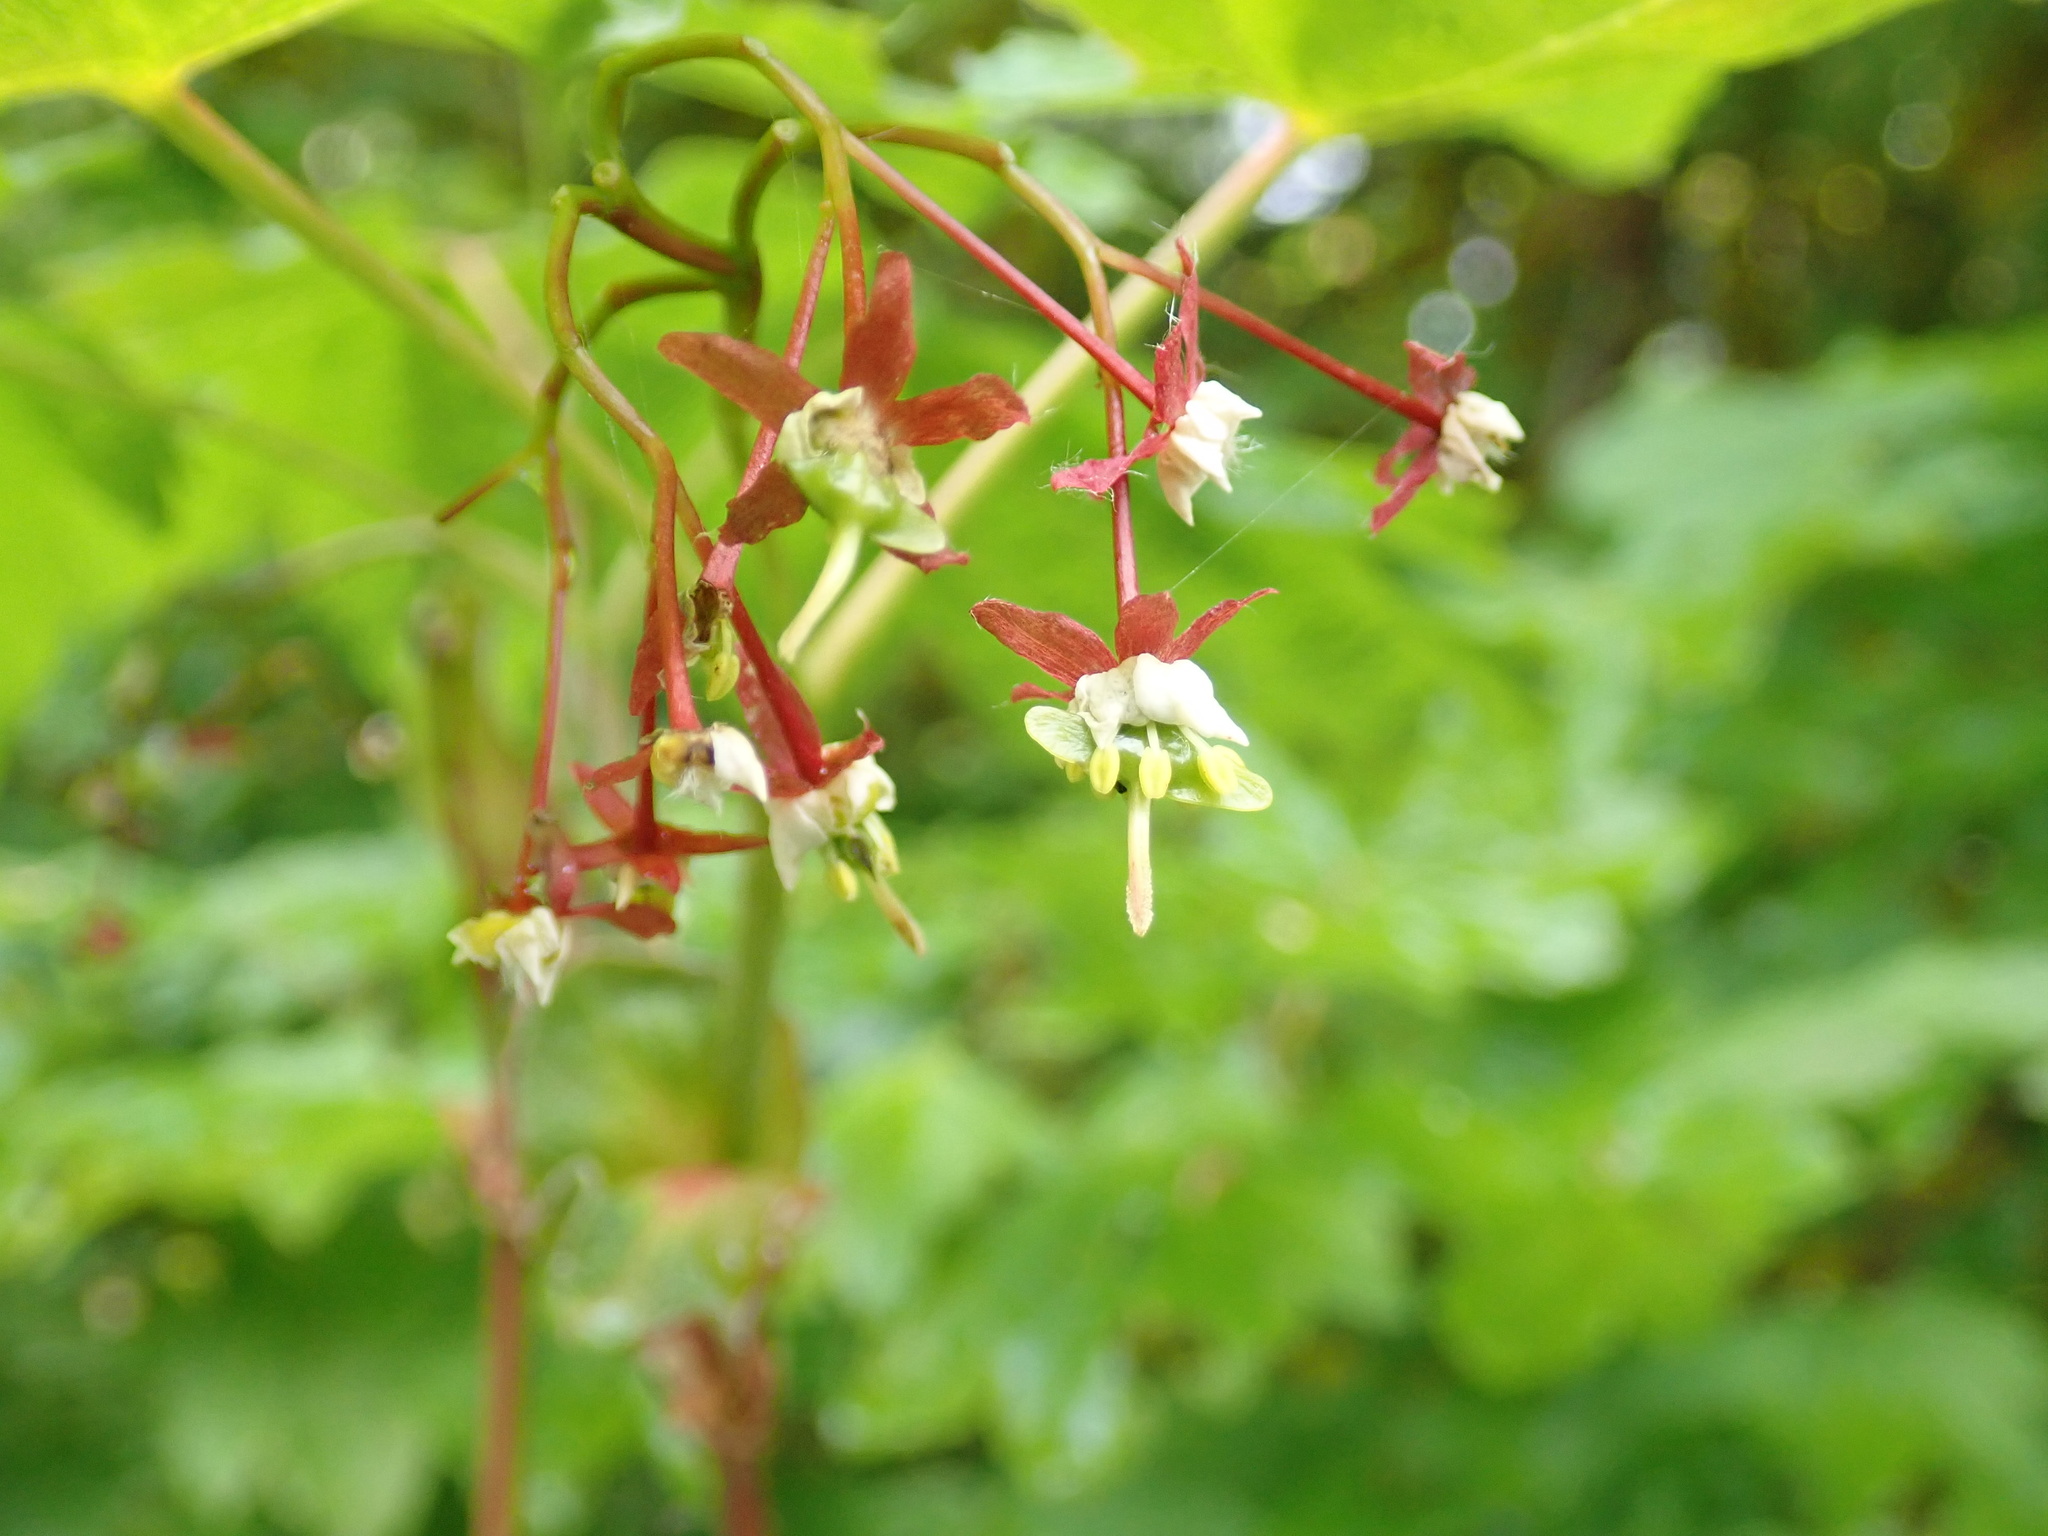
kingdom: Plantae
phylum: Tracheophyta
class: Magnoliopsida
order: Sapindales
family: Sapindaceae
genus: Acer
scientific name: Acer circinatum
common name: Vine maple
